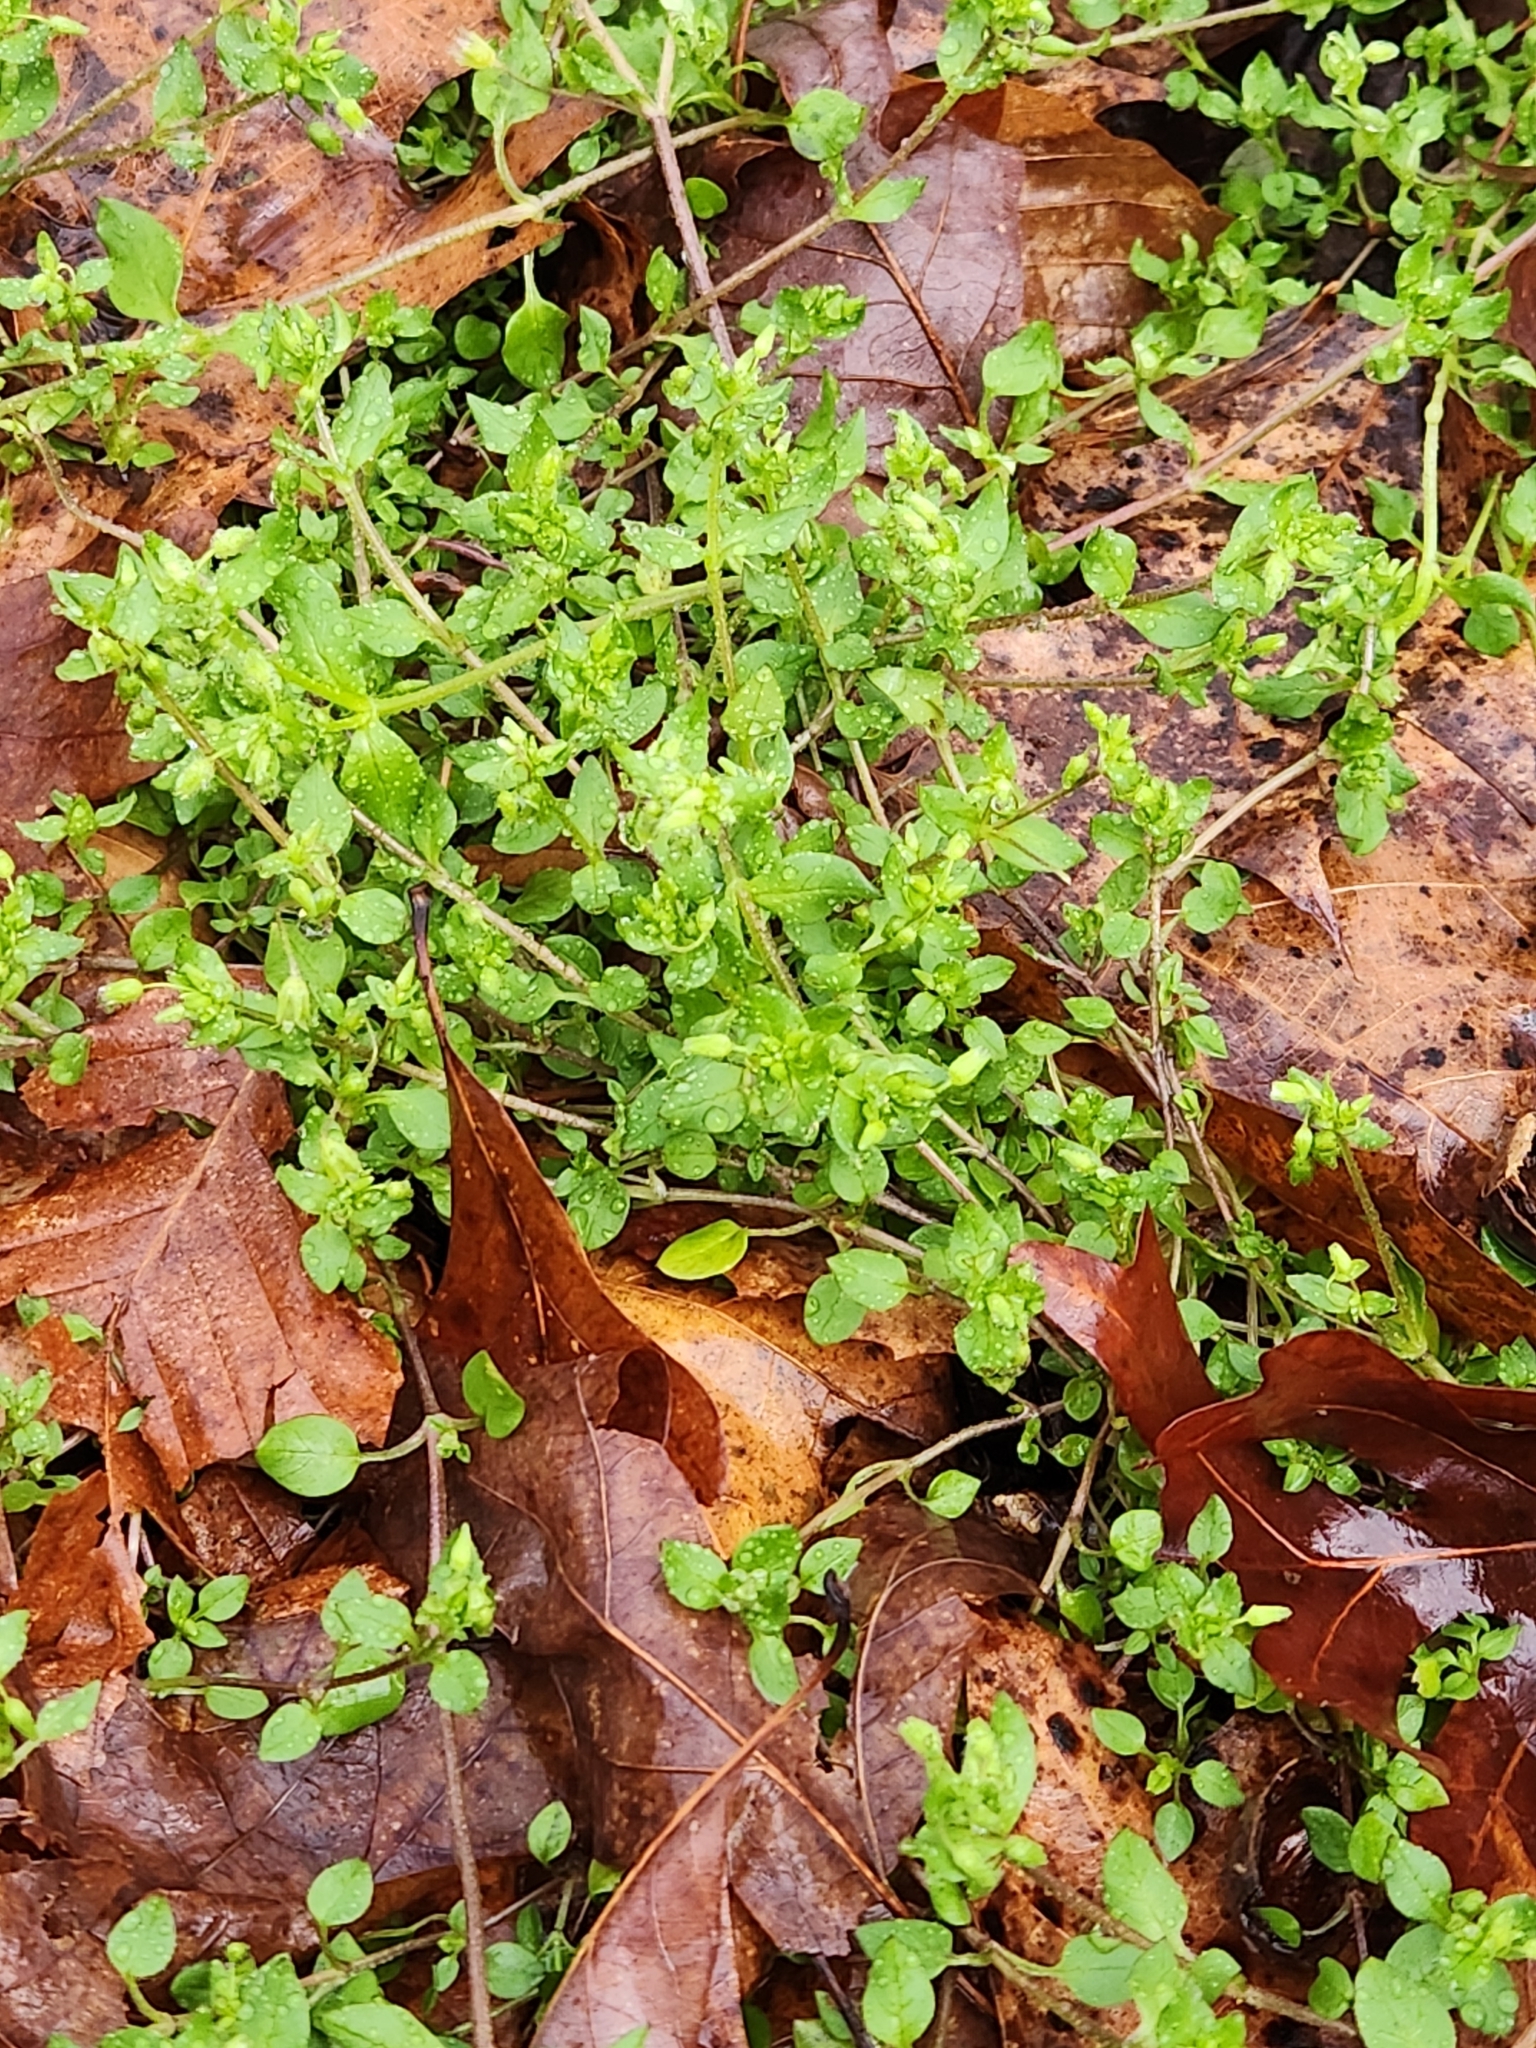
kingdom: Plantae
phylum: Tracheophyta
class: Magnoliopsida
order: Caryophyllales
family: Caryophyllaceae
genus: Stellaria
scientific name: Stellaria media
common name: Common chickweed
